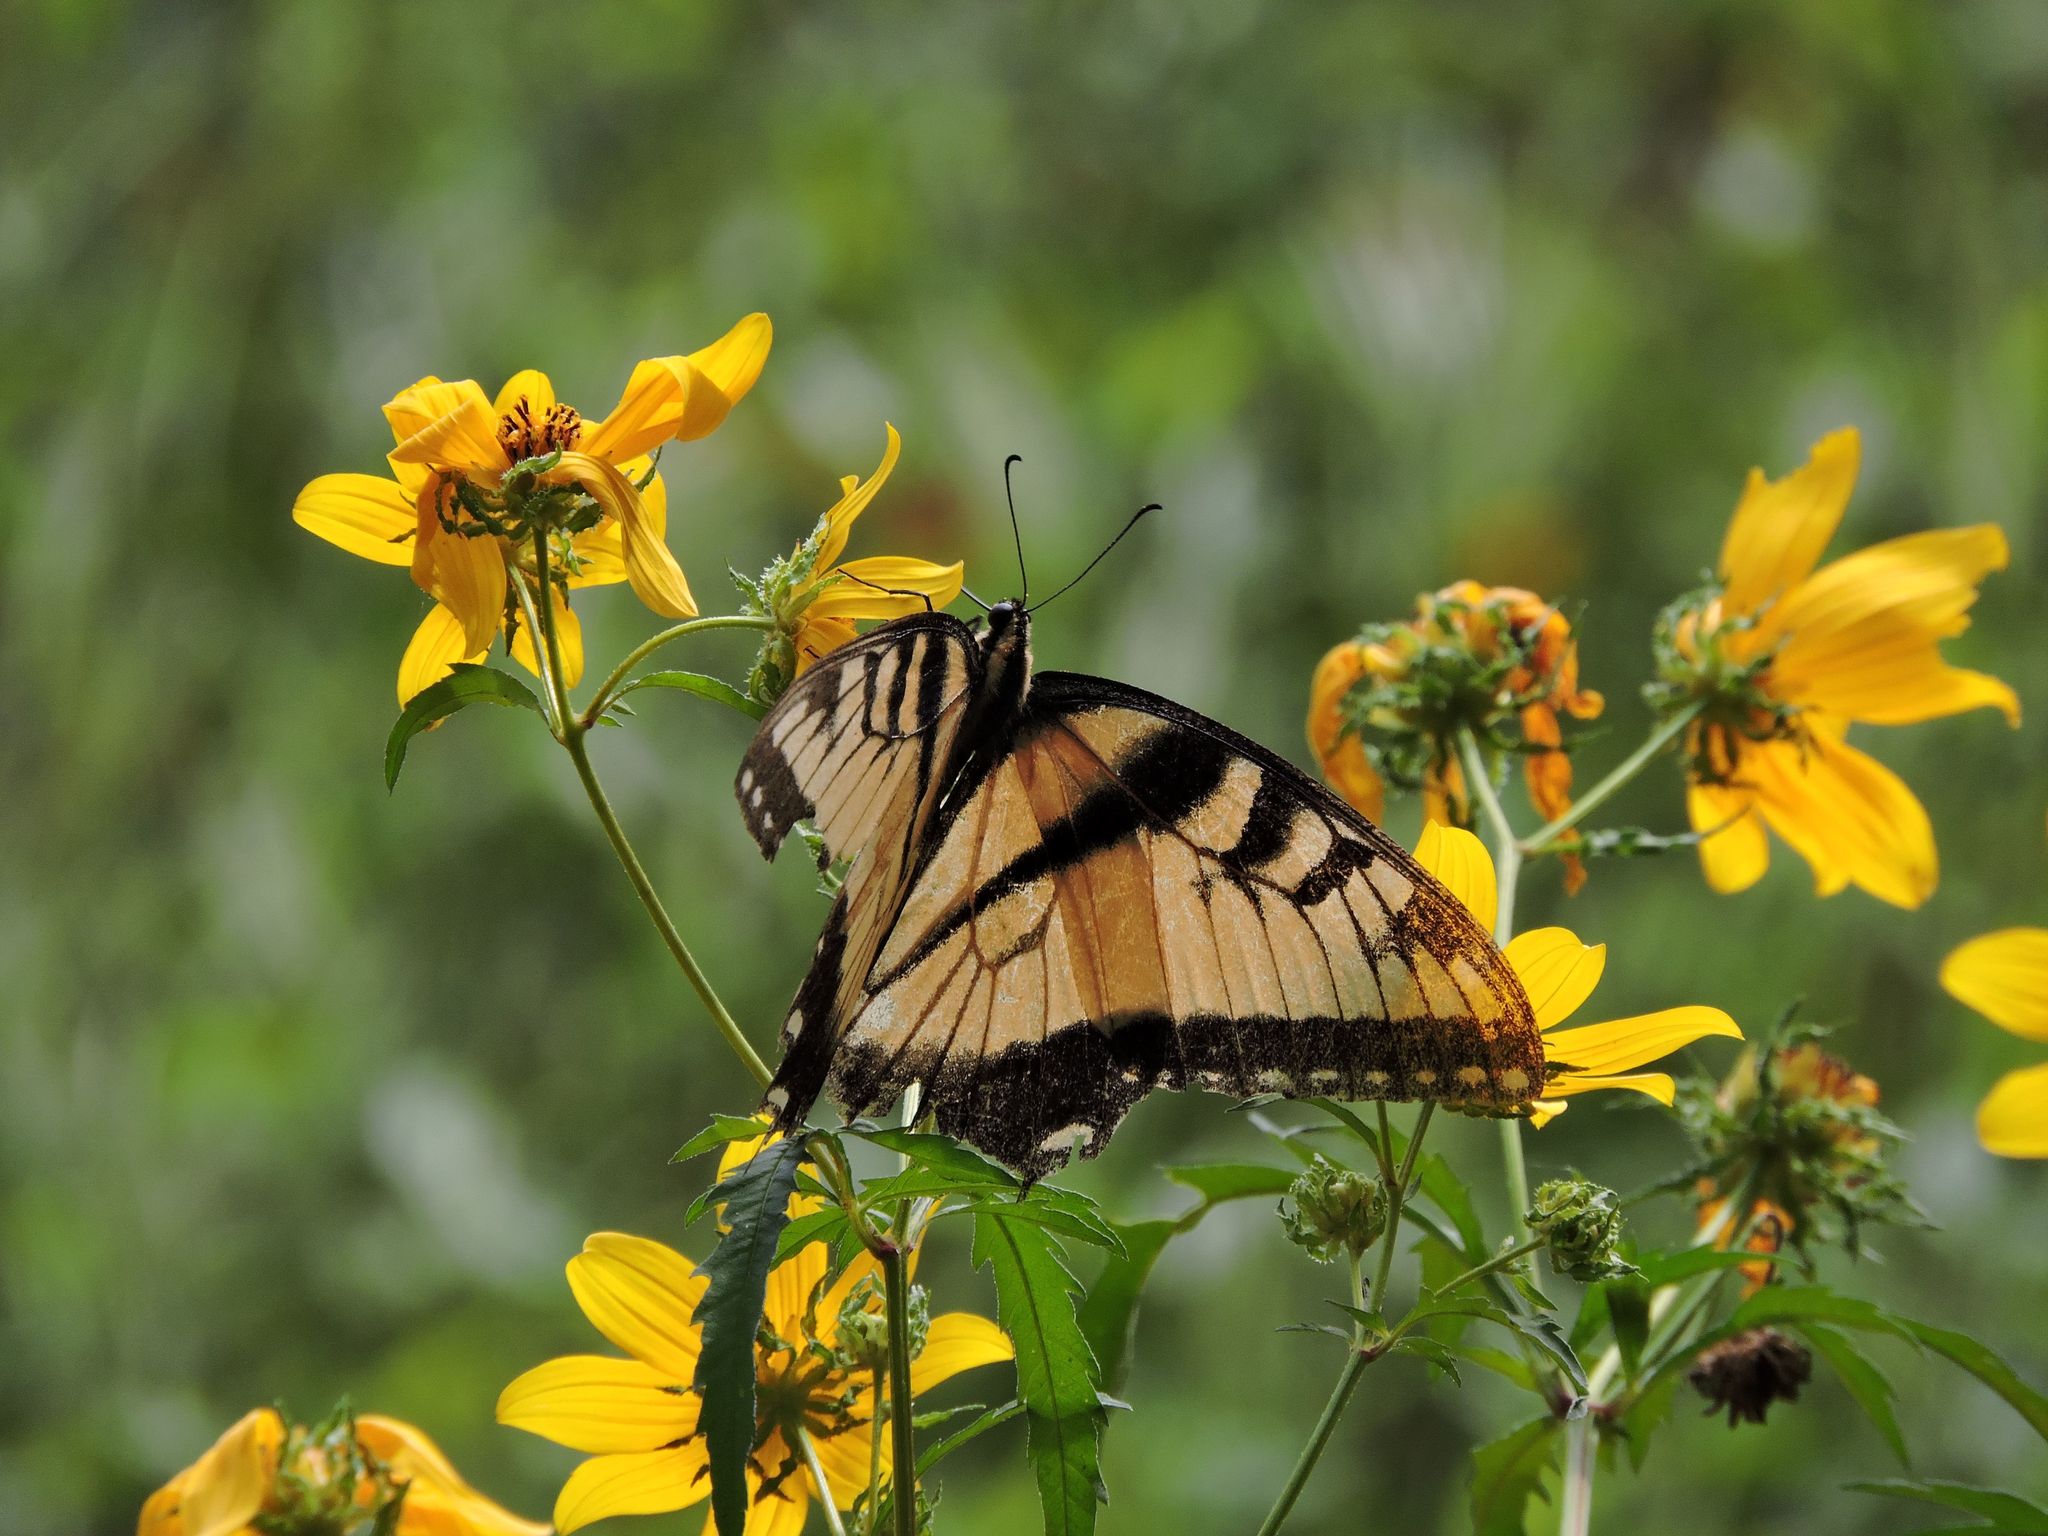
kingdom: Animalia
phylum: Arthropoda
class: Insecta
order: Lepidoptera
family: Papilionidae
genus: Papilio
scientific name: Papilio glaucus
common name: Tiger swallowtail
